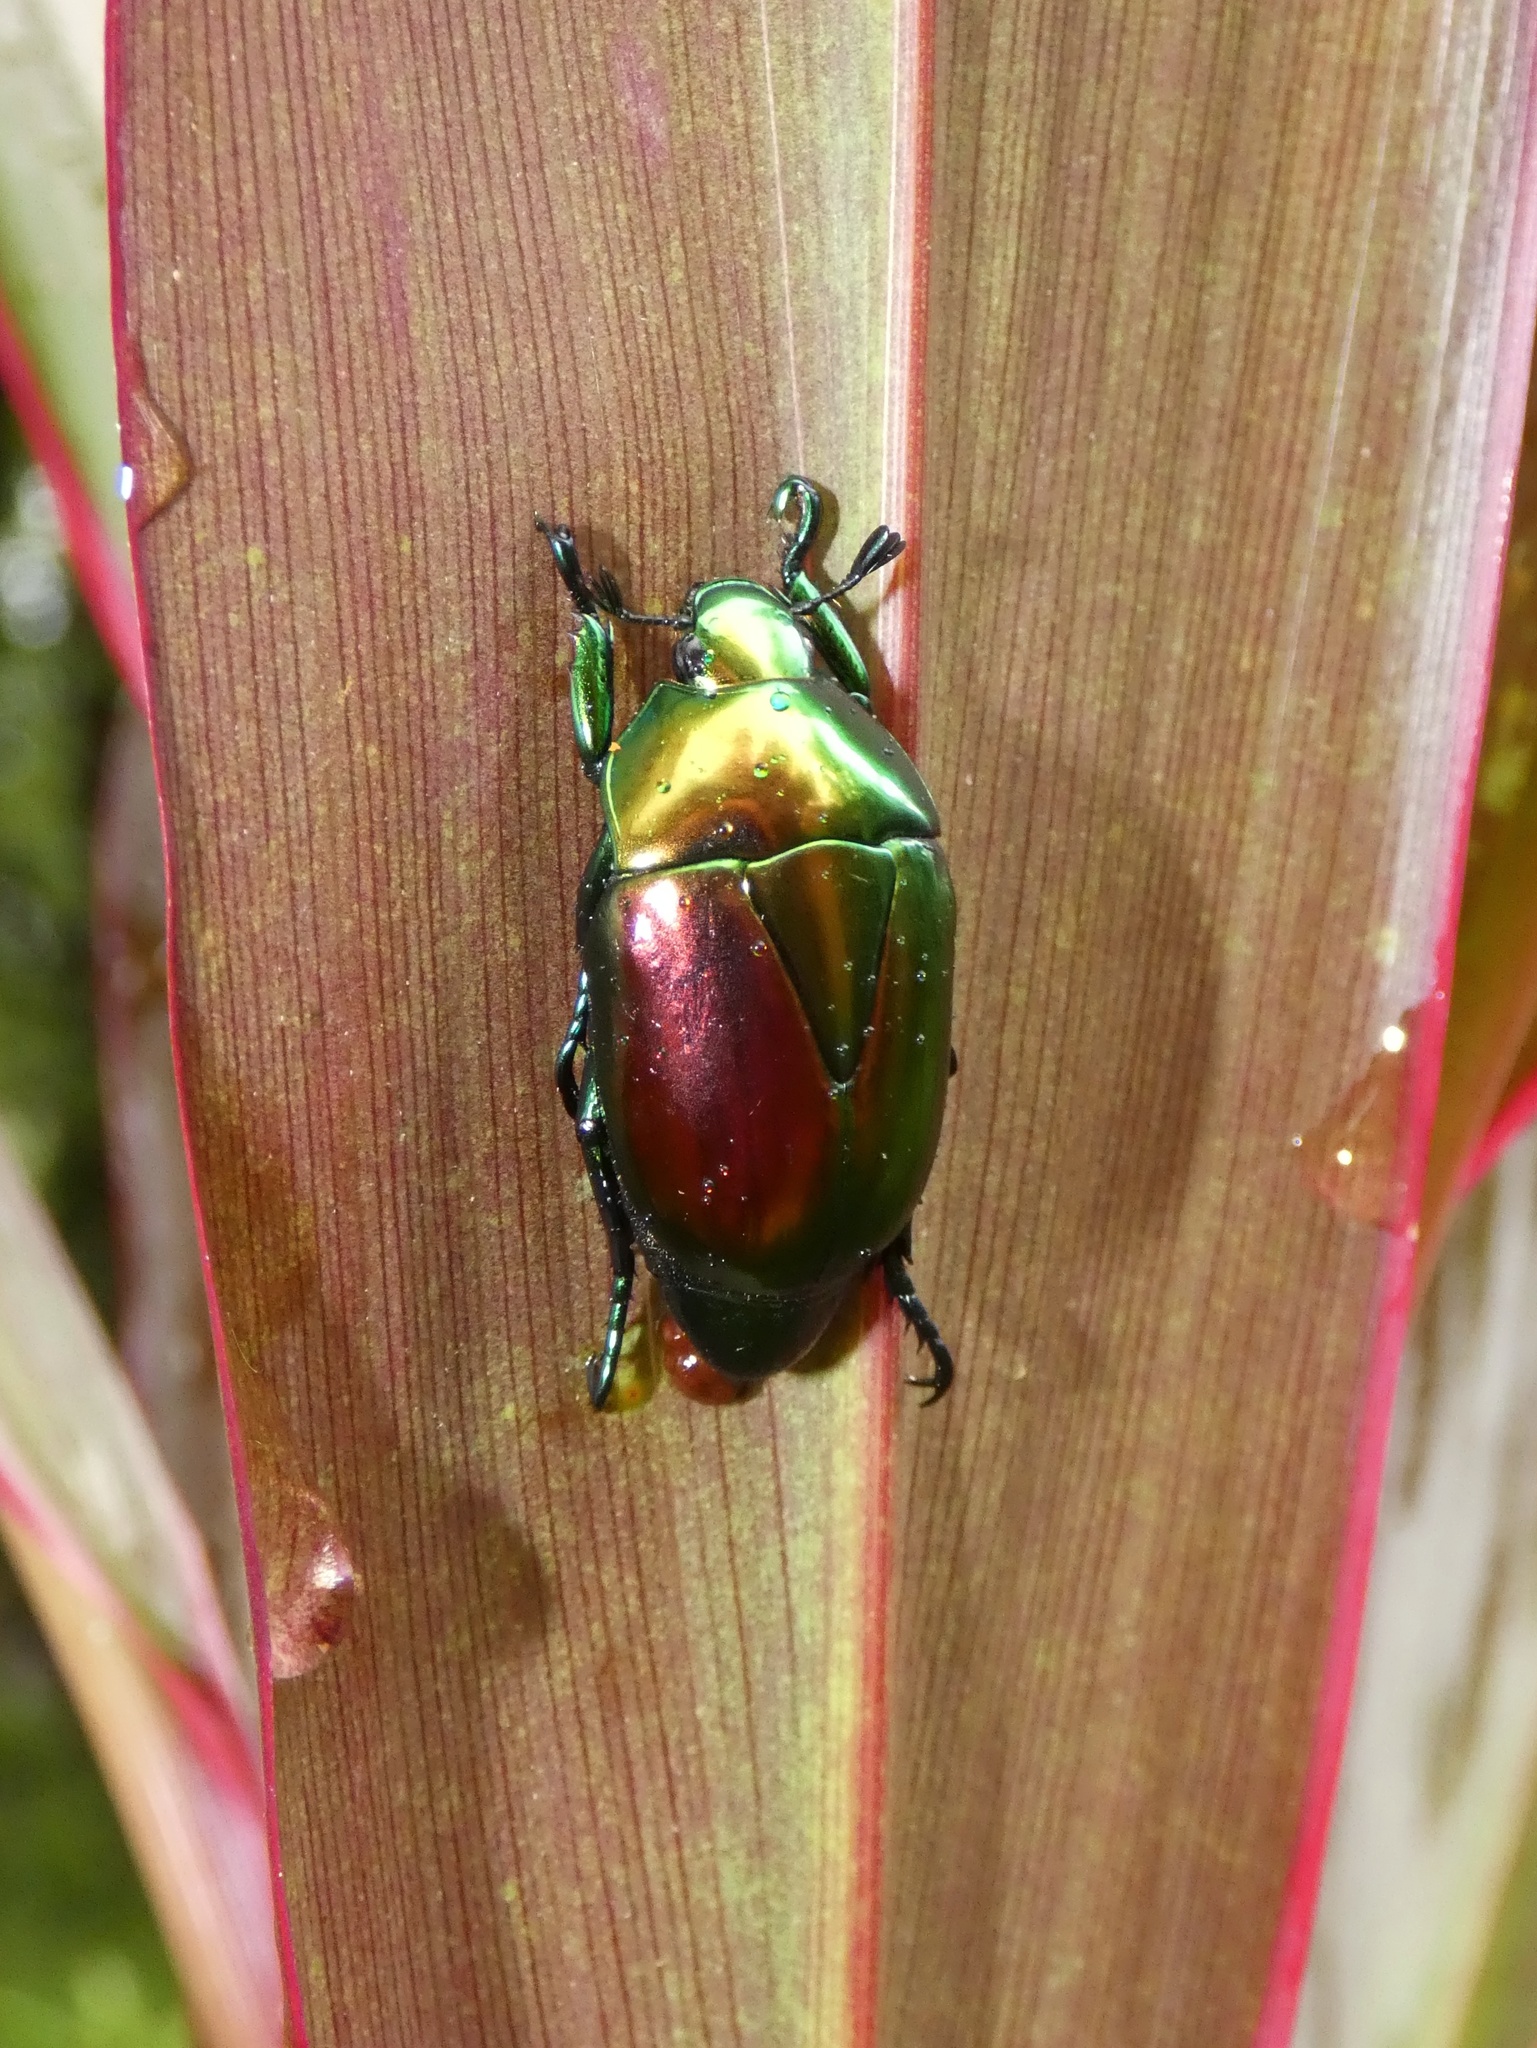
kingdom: Animalia
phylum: Arthropoda
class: Insecta
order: Coleoptera
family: Scarabaeidae
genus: Macraspis
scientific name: Macraspis chrysis
